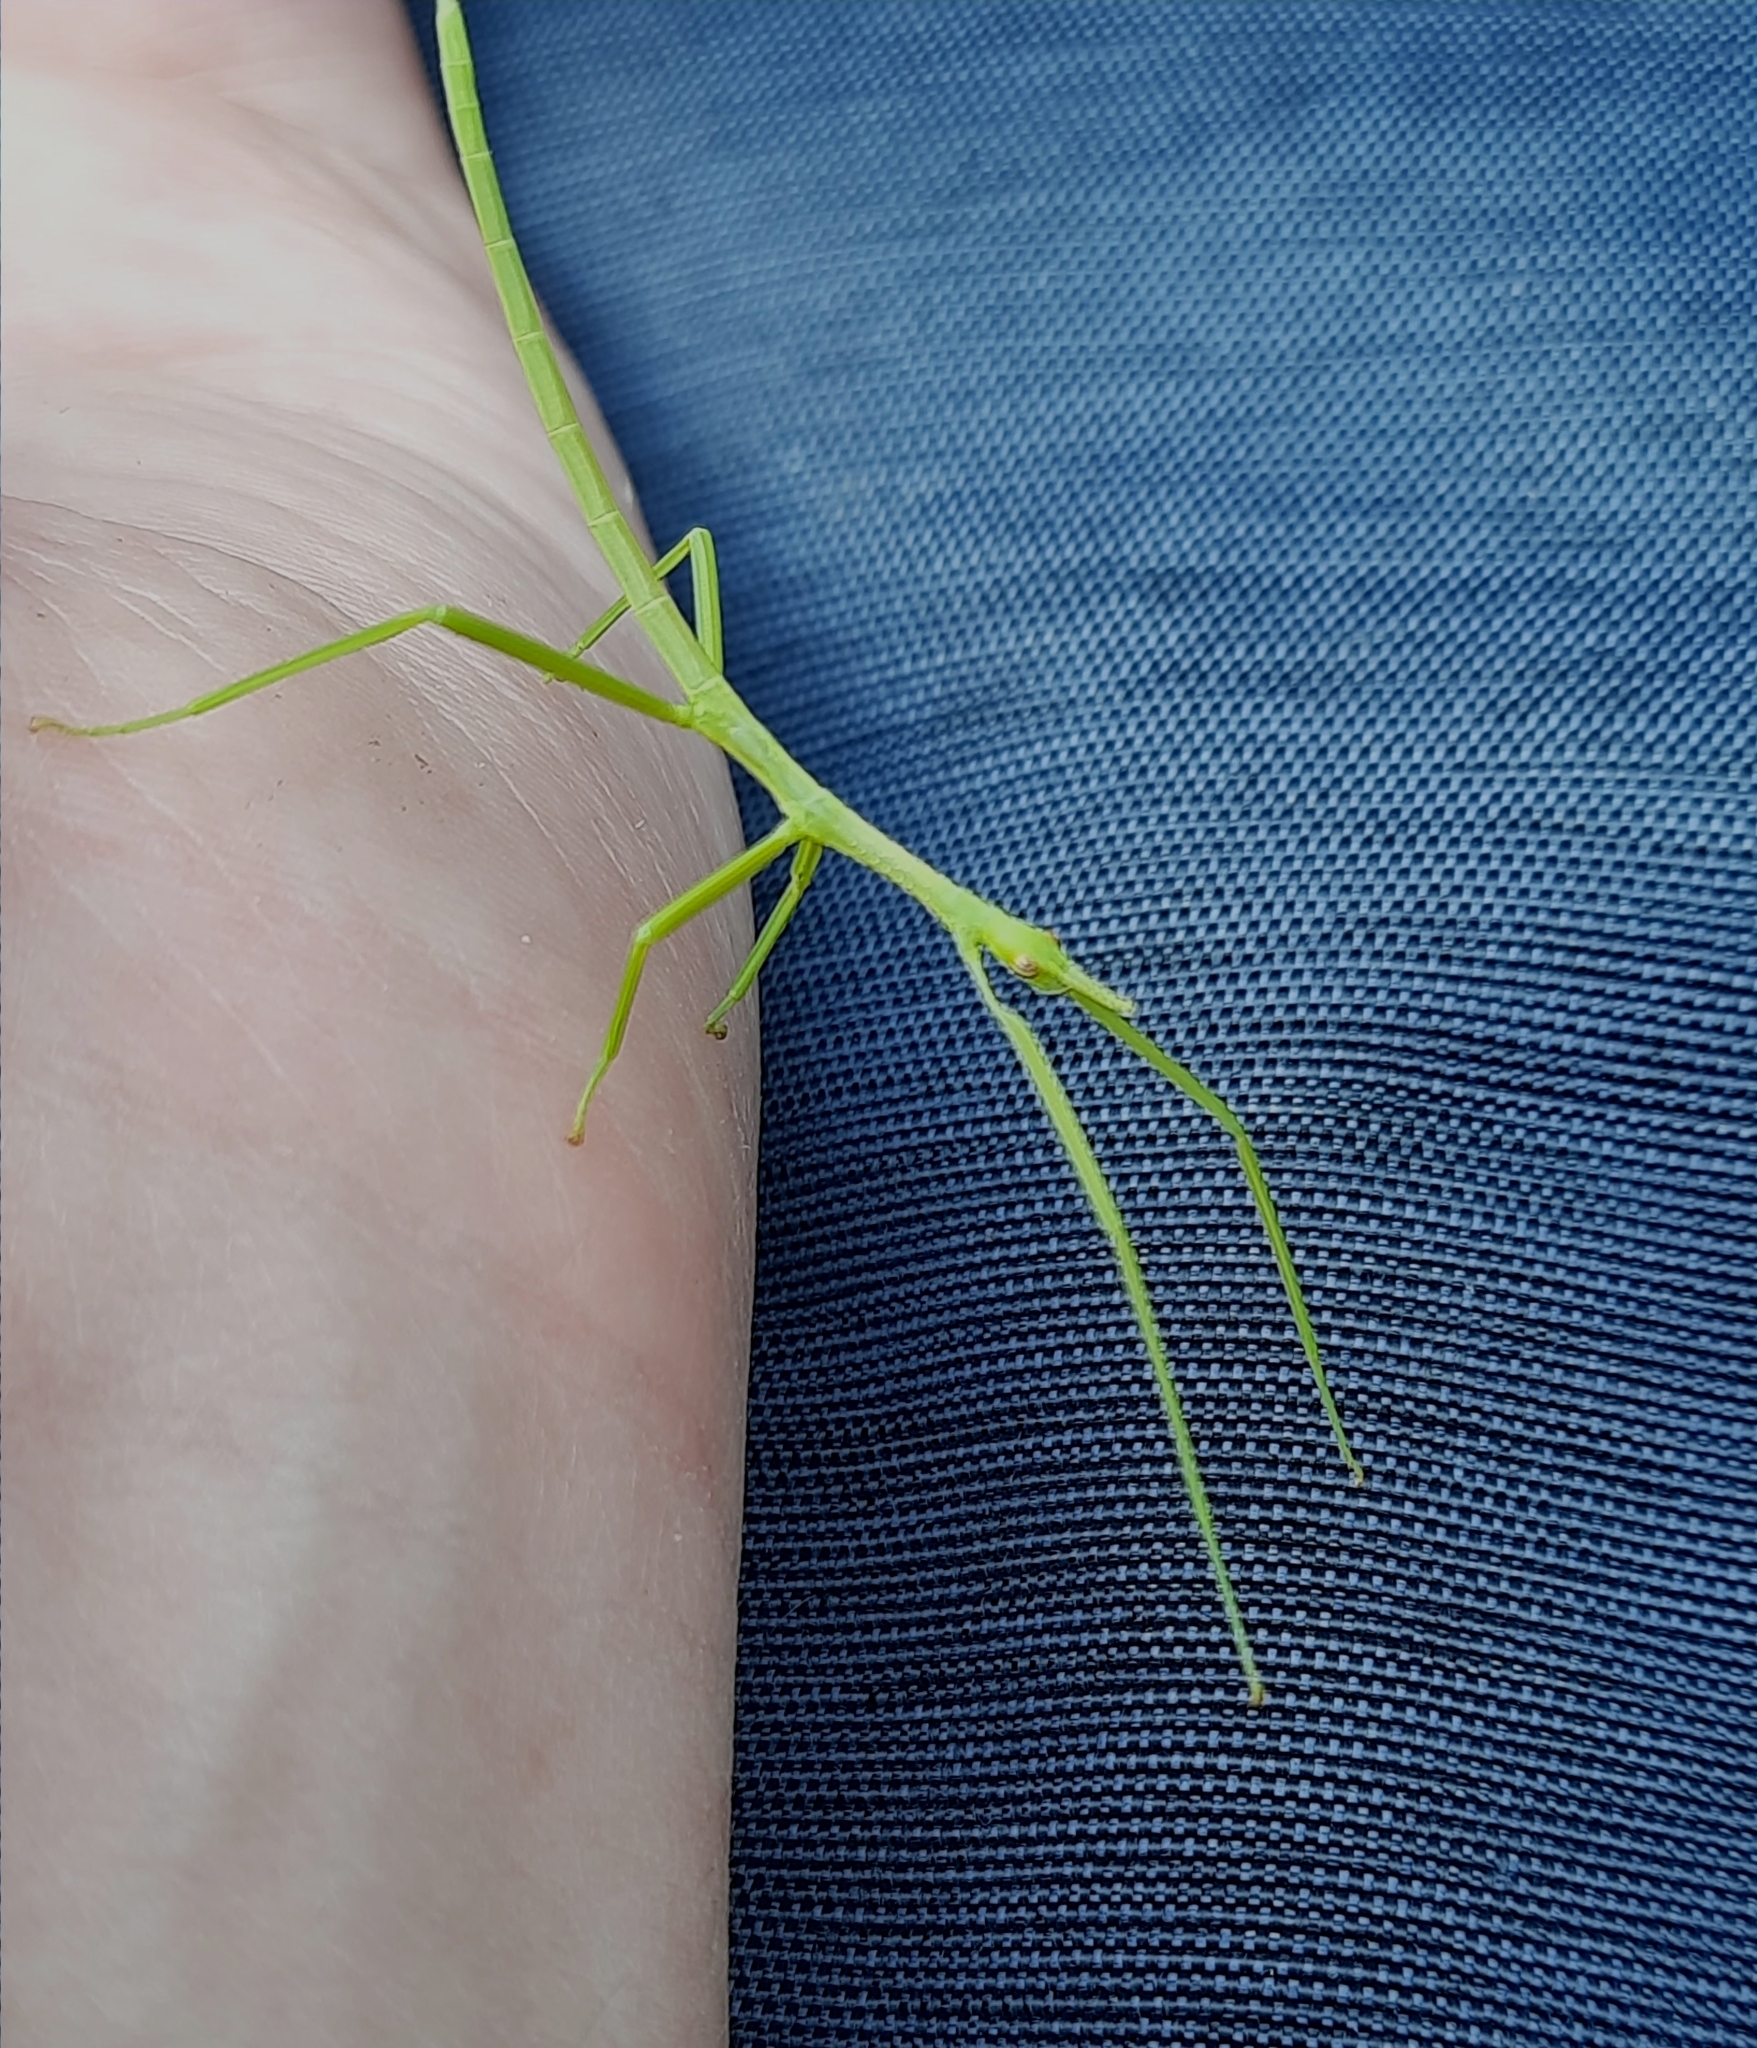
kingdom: Animalia
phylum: Arthropoda
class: Insecta
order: Phasmida
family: Phasmatidae
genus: Acrophylla
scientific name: Acrophylla titan
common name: Titan stick insect
